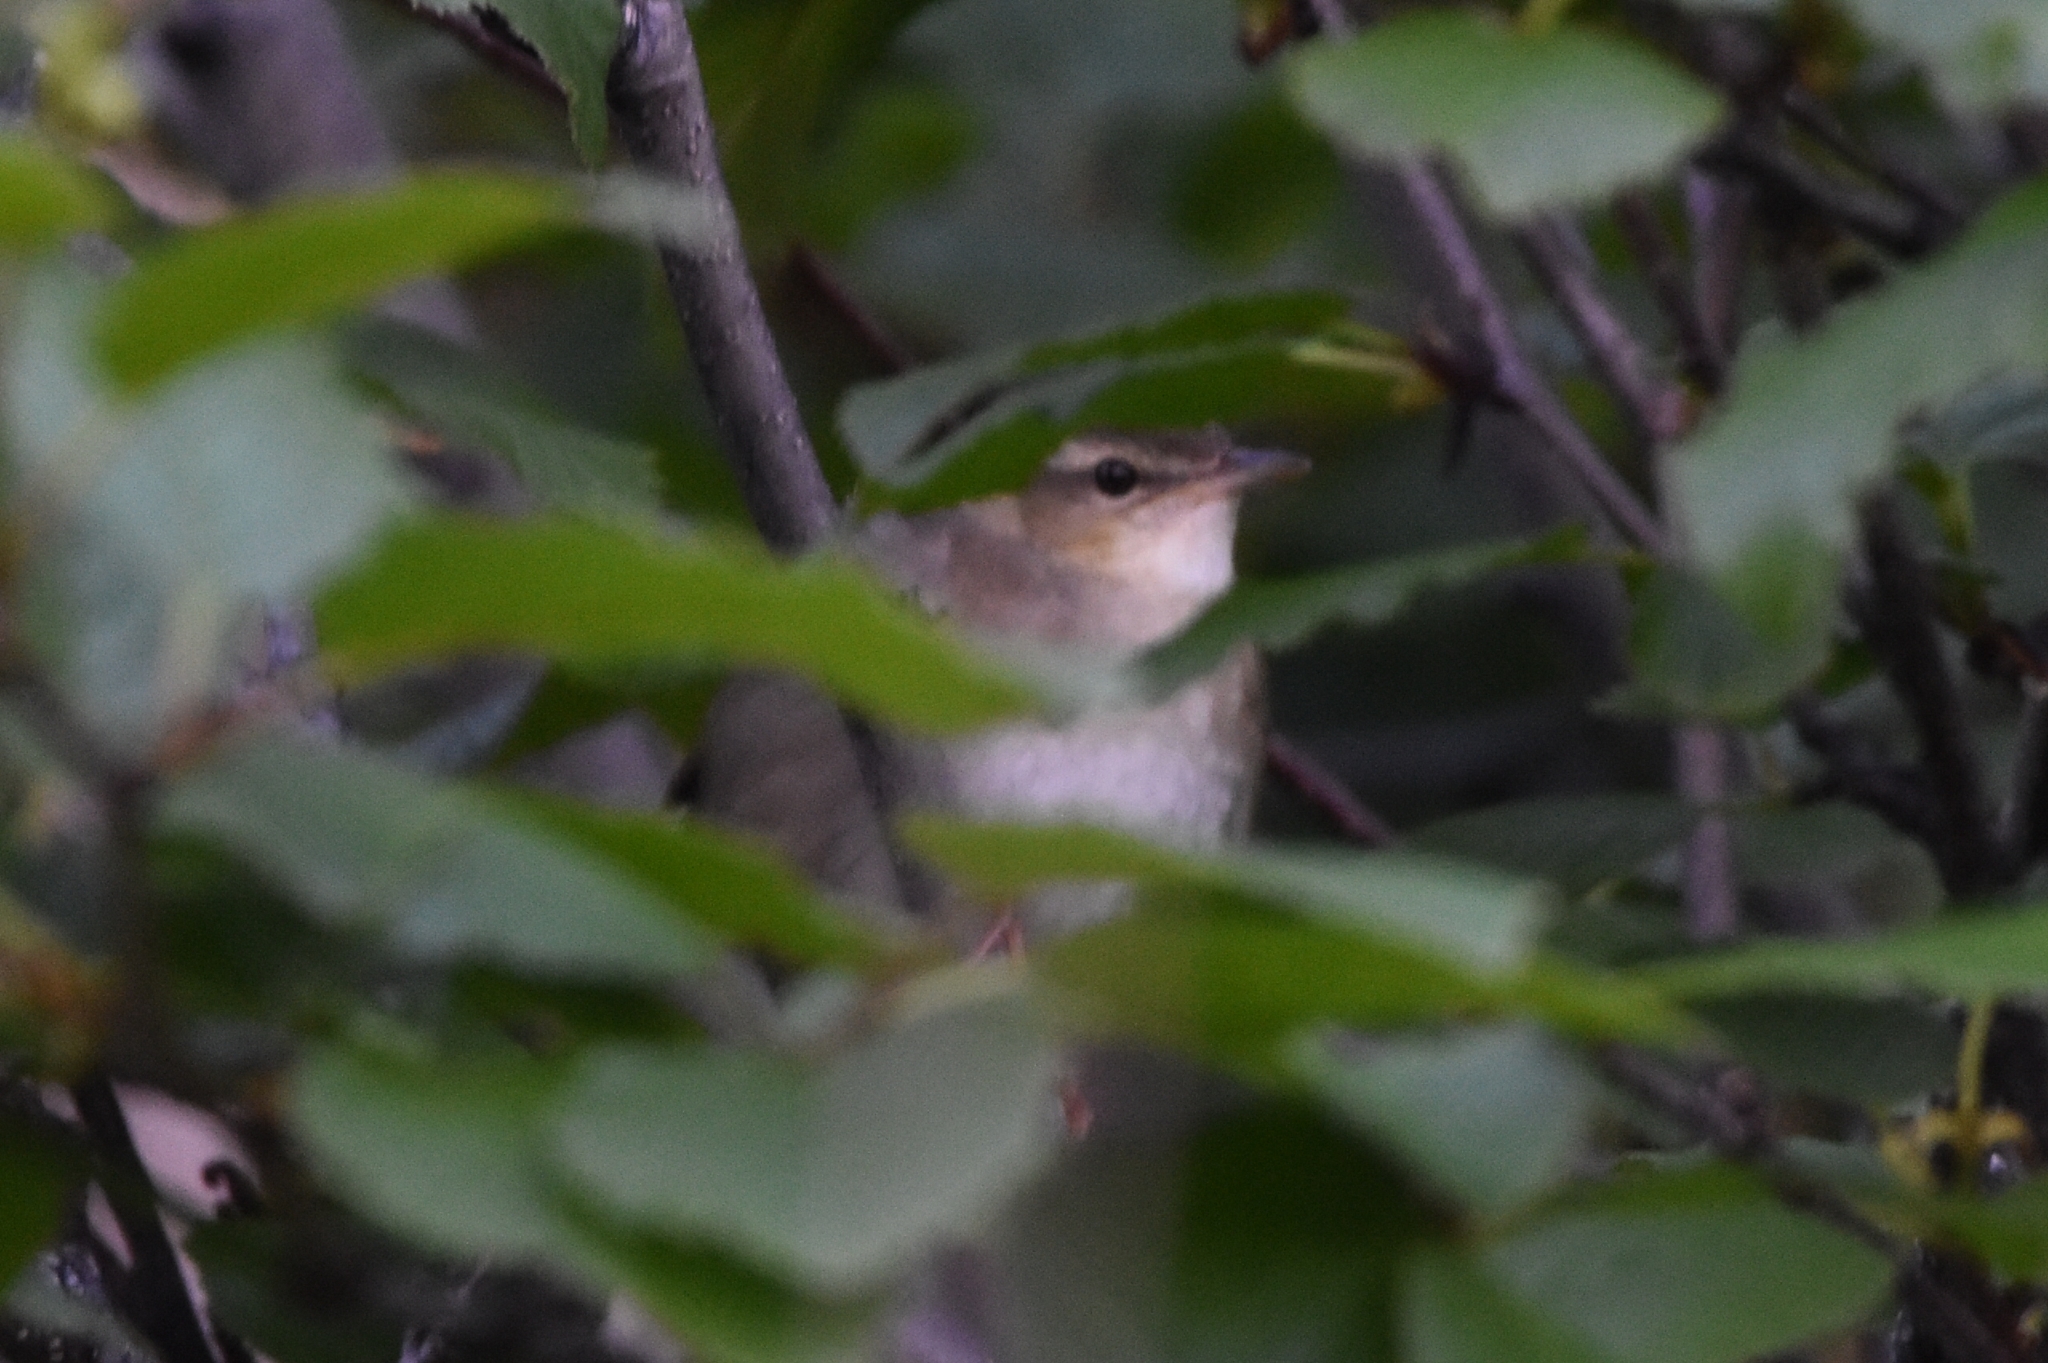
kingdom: Animalia
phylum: Chordata
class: Aves
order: Passeriformes
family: Locustellidae
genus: Locustella
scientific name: Locustella ochotensis
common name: Middendorff's grasshopper-warbler
